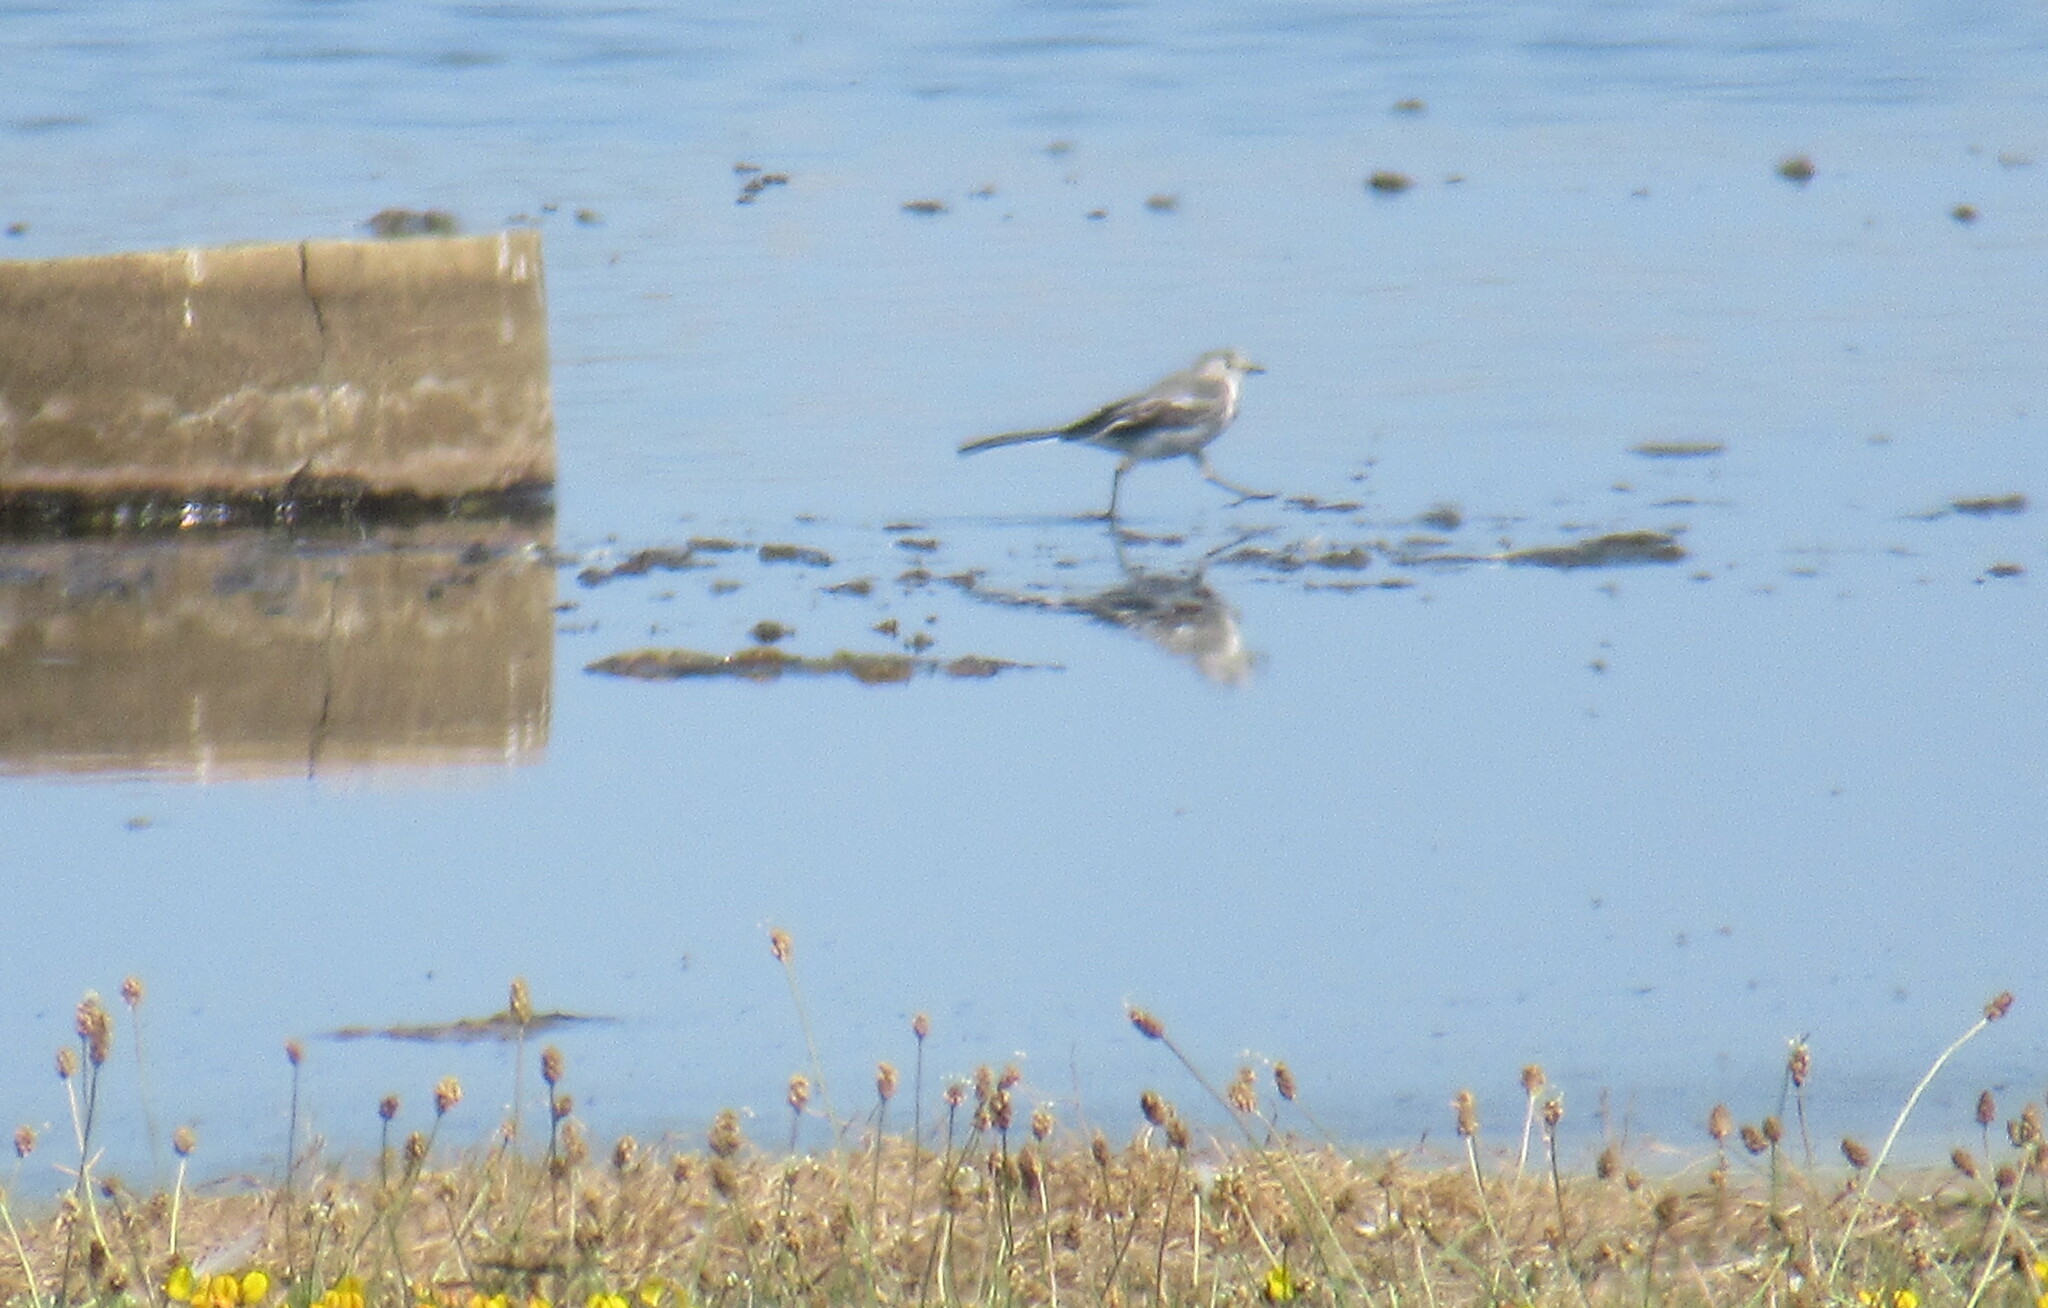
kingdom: Animalia
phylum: Chordata
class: Aves
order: Passeriformes
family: Motacillidae
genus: Motacilla
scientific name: Motacilla alba
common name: White wagtail
